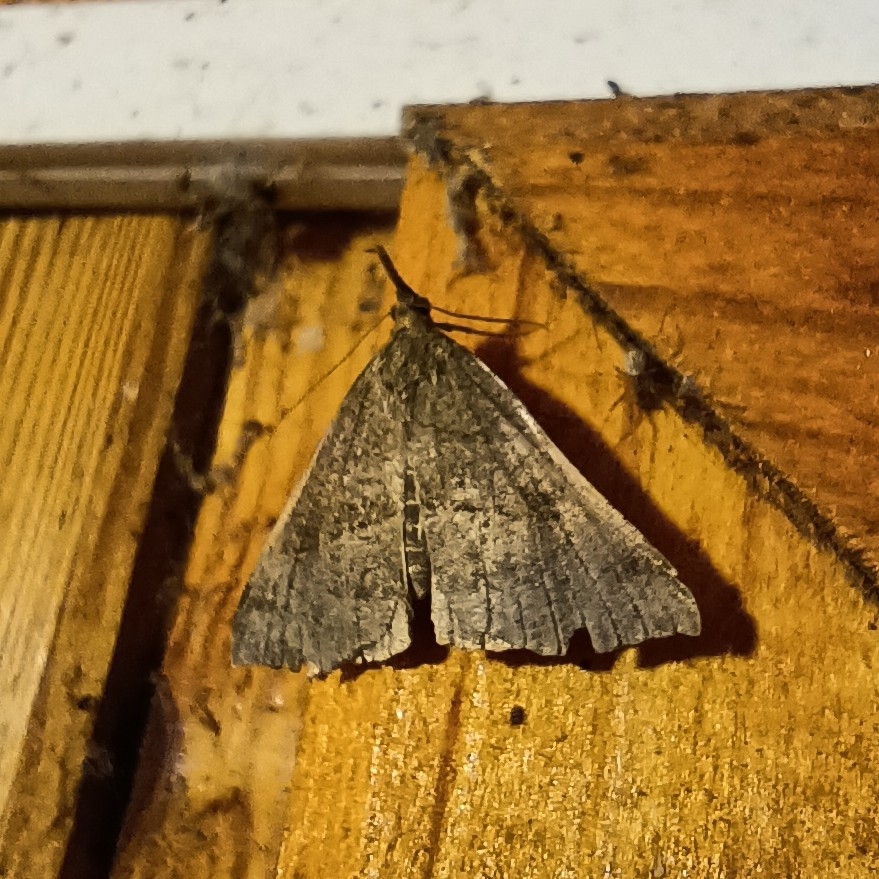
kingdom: Animalia
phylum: Arthropoda
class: Insecta
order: Lepidoptera
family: Erebidae
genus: Hypena
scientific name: Hypena proboscidalis
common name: Snout
